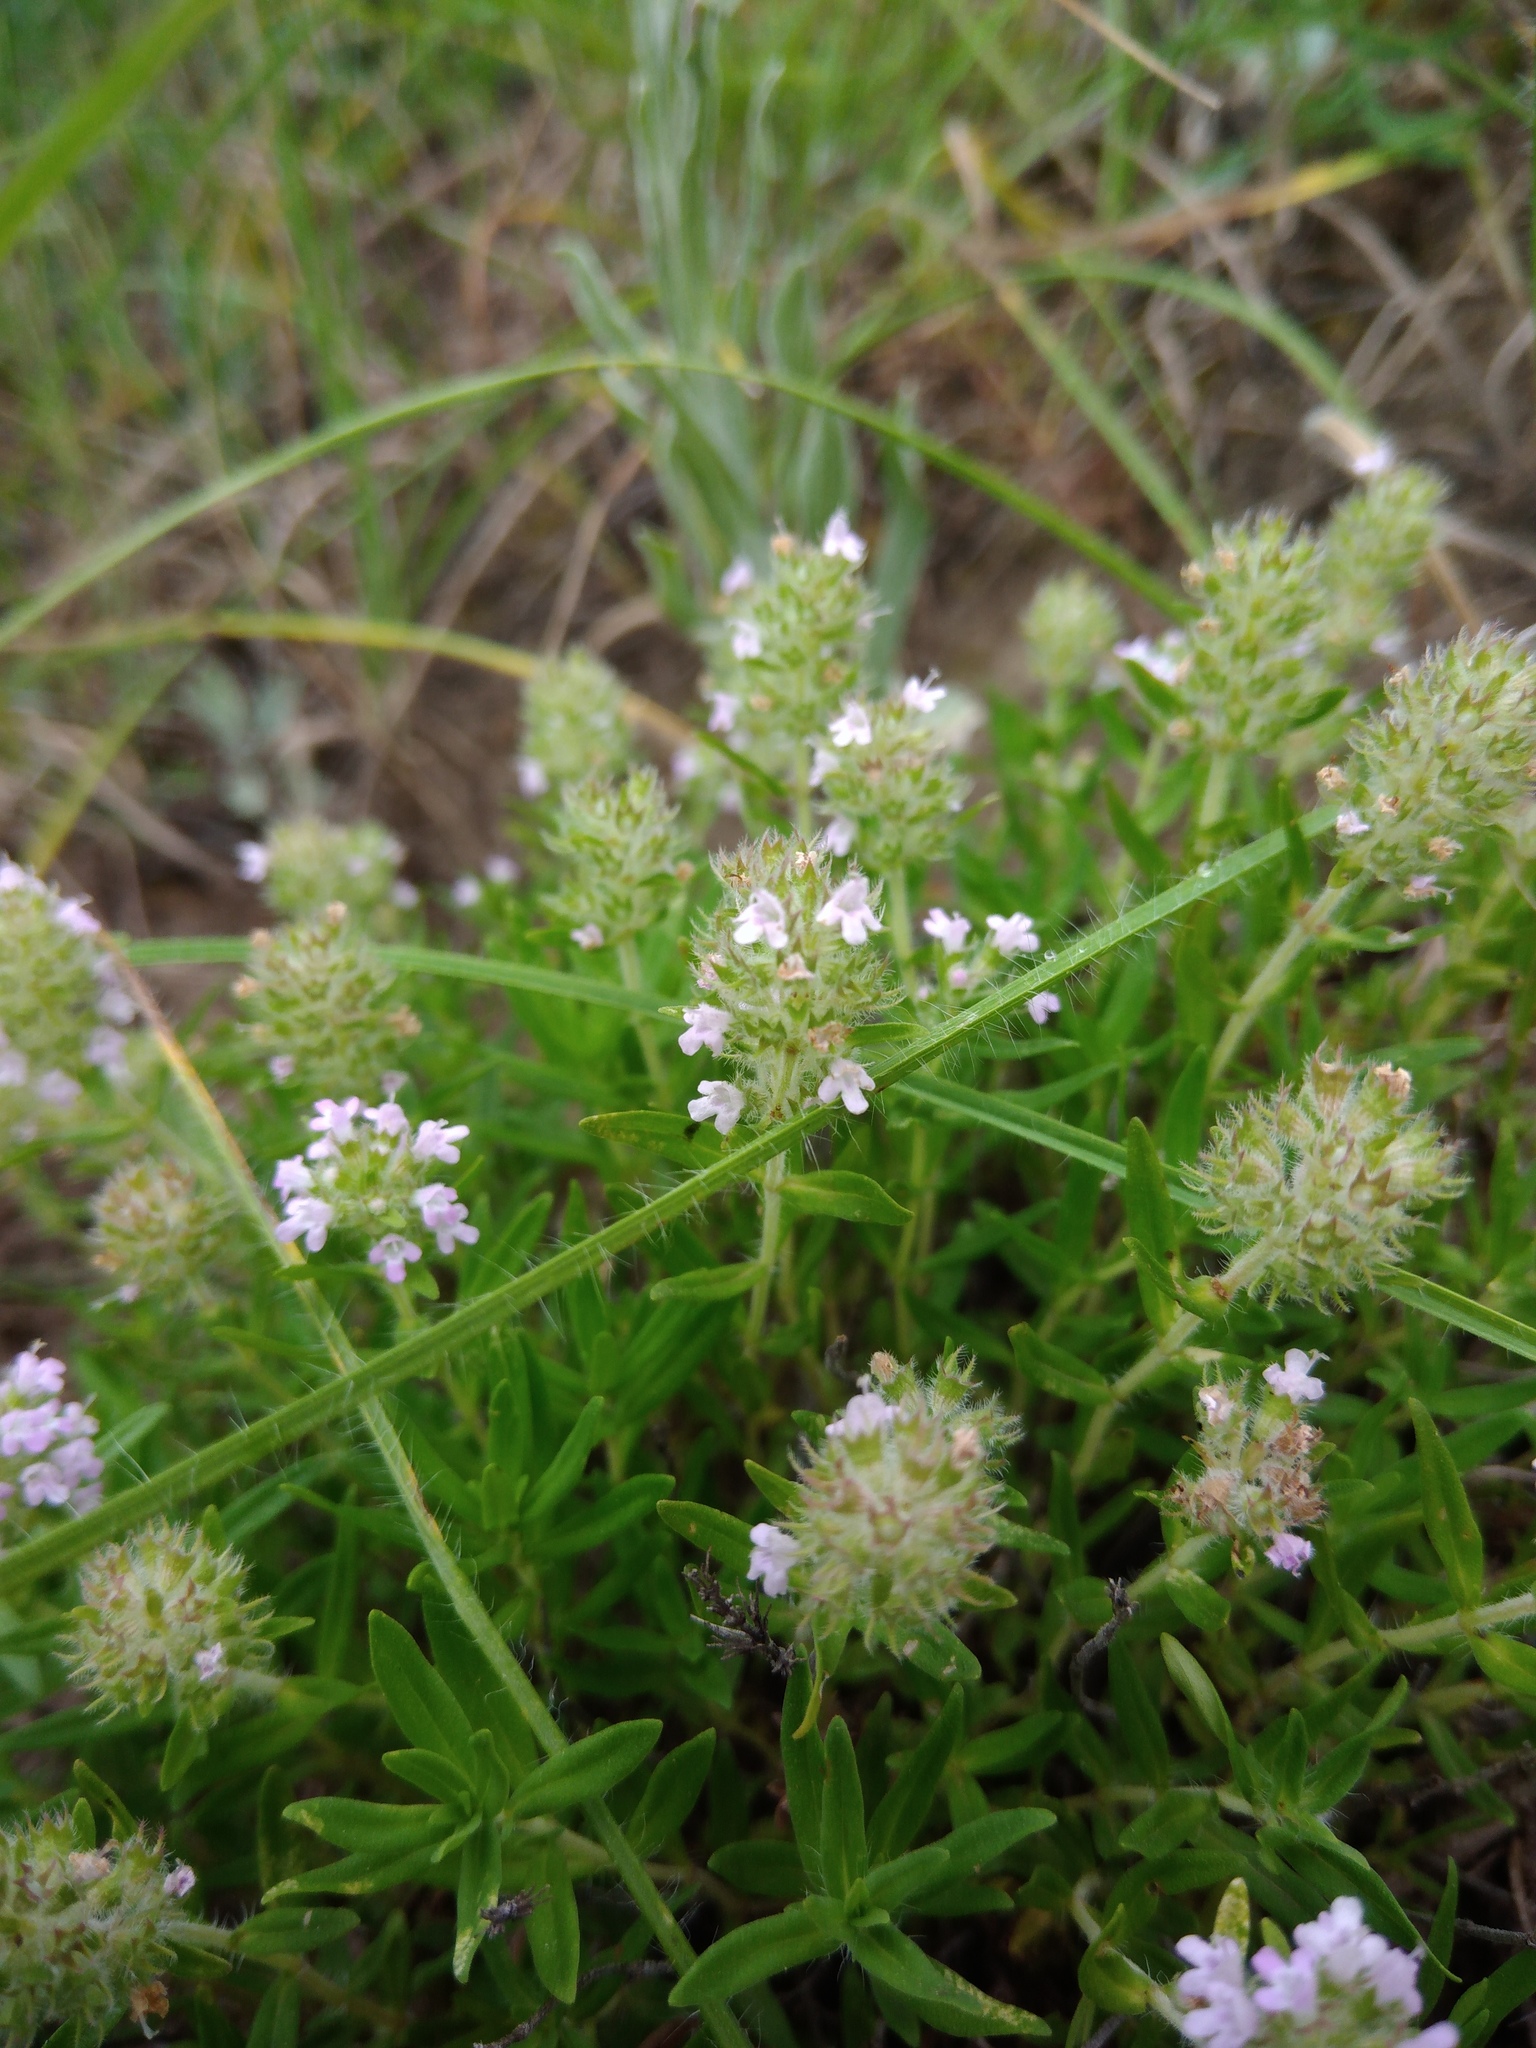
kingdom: Plantae
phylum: Tracheophyta
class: Magnoliopsida
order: Lamiales
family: Lamiaceae
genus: Thymus
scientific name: Thymus pannonicus
